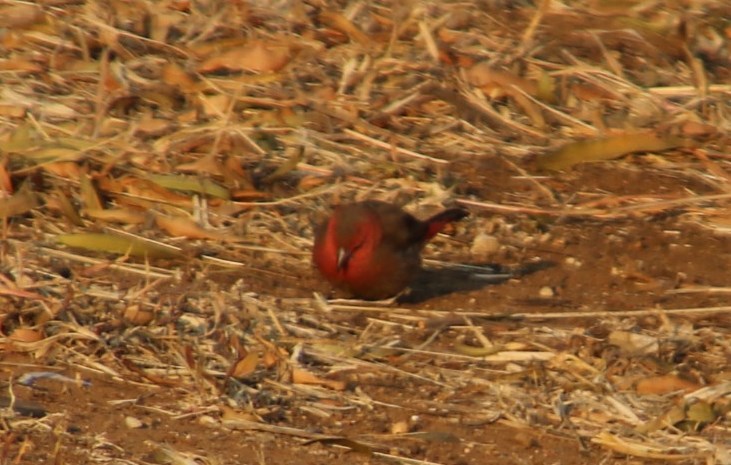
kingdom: Animalia
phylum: Chordata
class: Aves
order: Passeriformes
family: Estrildidae
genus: Lagonosticta
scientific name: Lagonosticta senegala
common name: Red-billed firefinch
